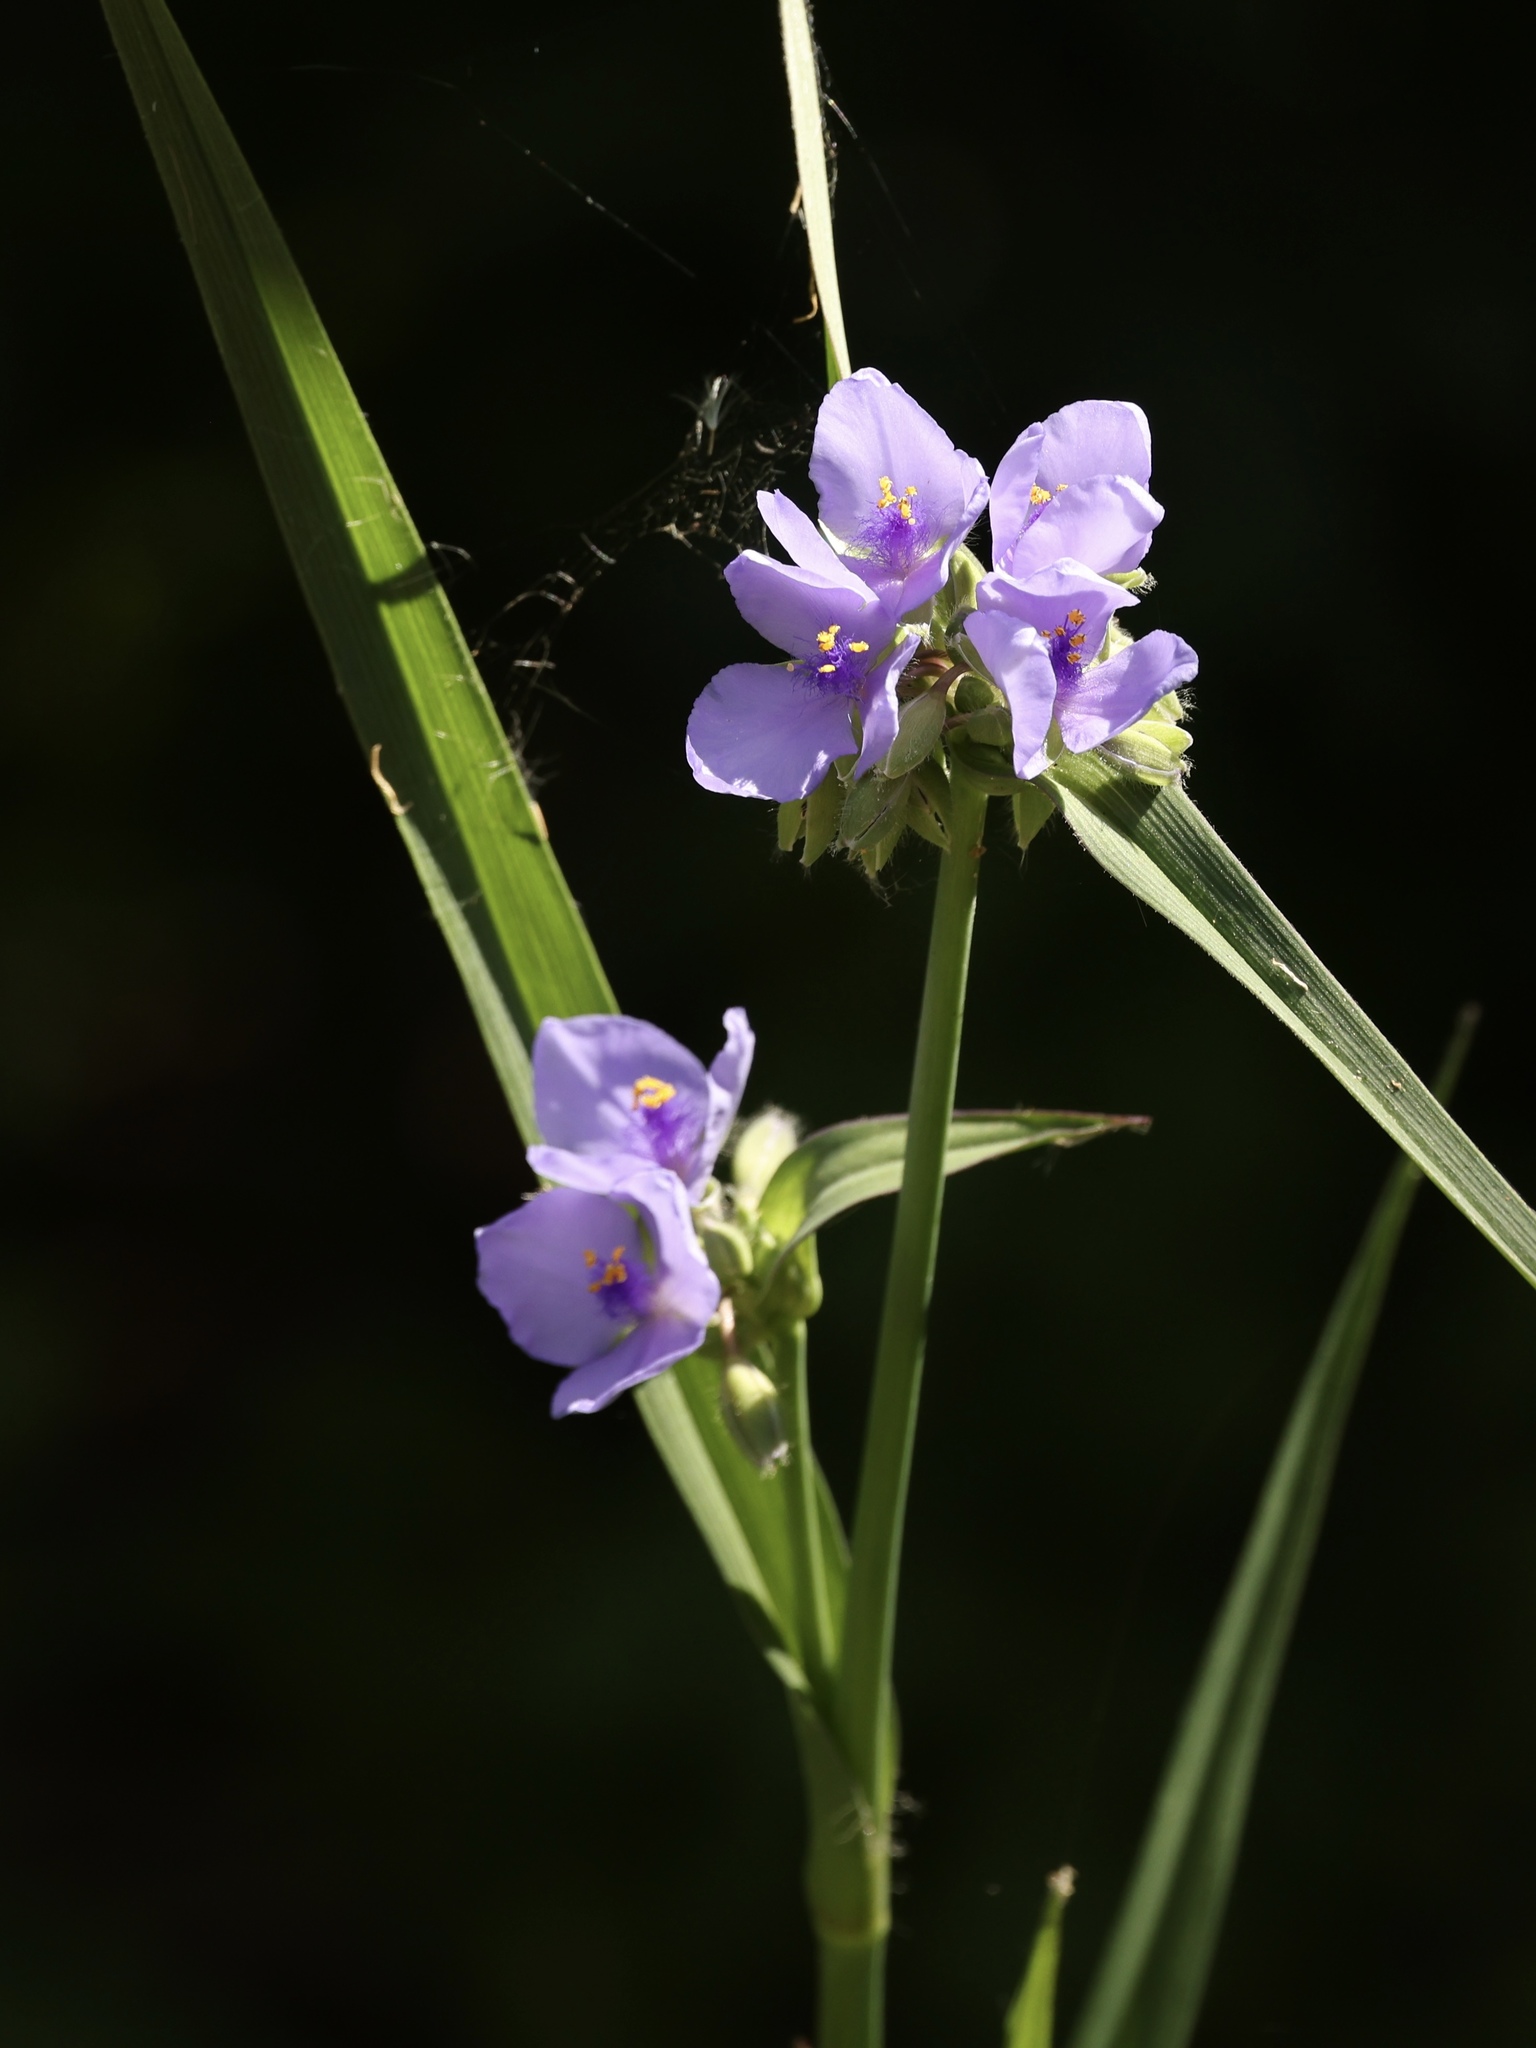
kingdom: Plantae
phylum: Tracheophyta
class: Liliopsida
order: Commelinales
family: Commelinaceae
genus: Tradescantia
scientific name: Tradescantia ohiensis
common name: Ohio spiderwort
